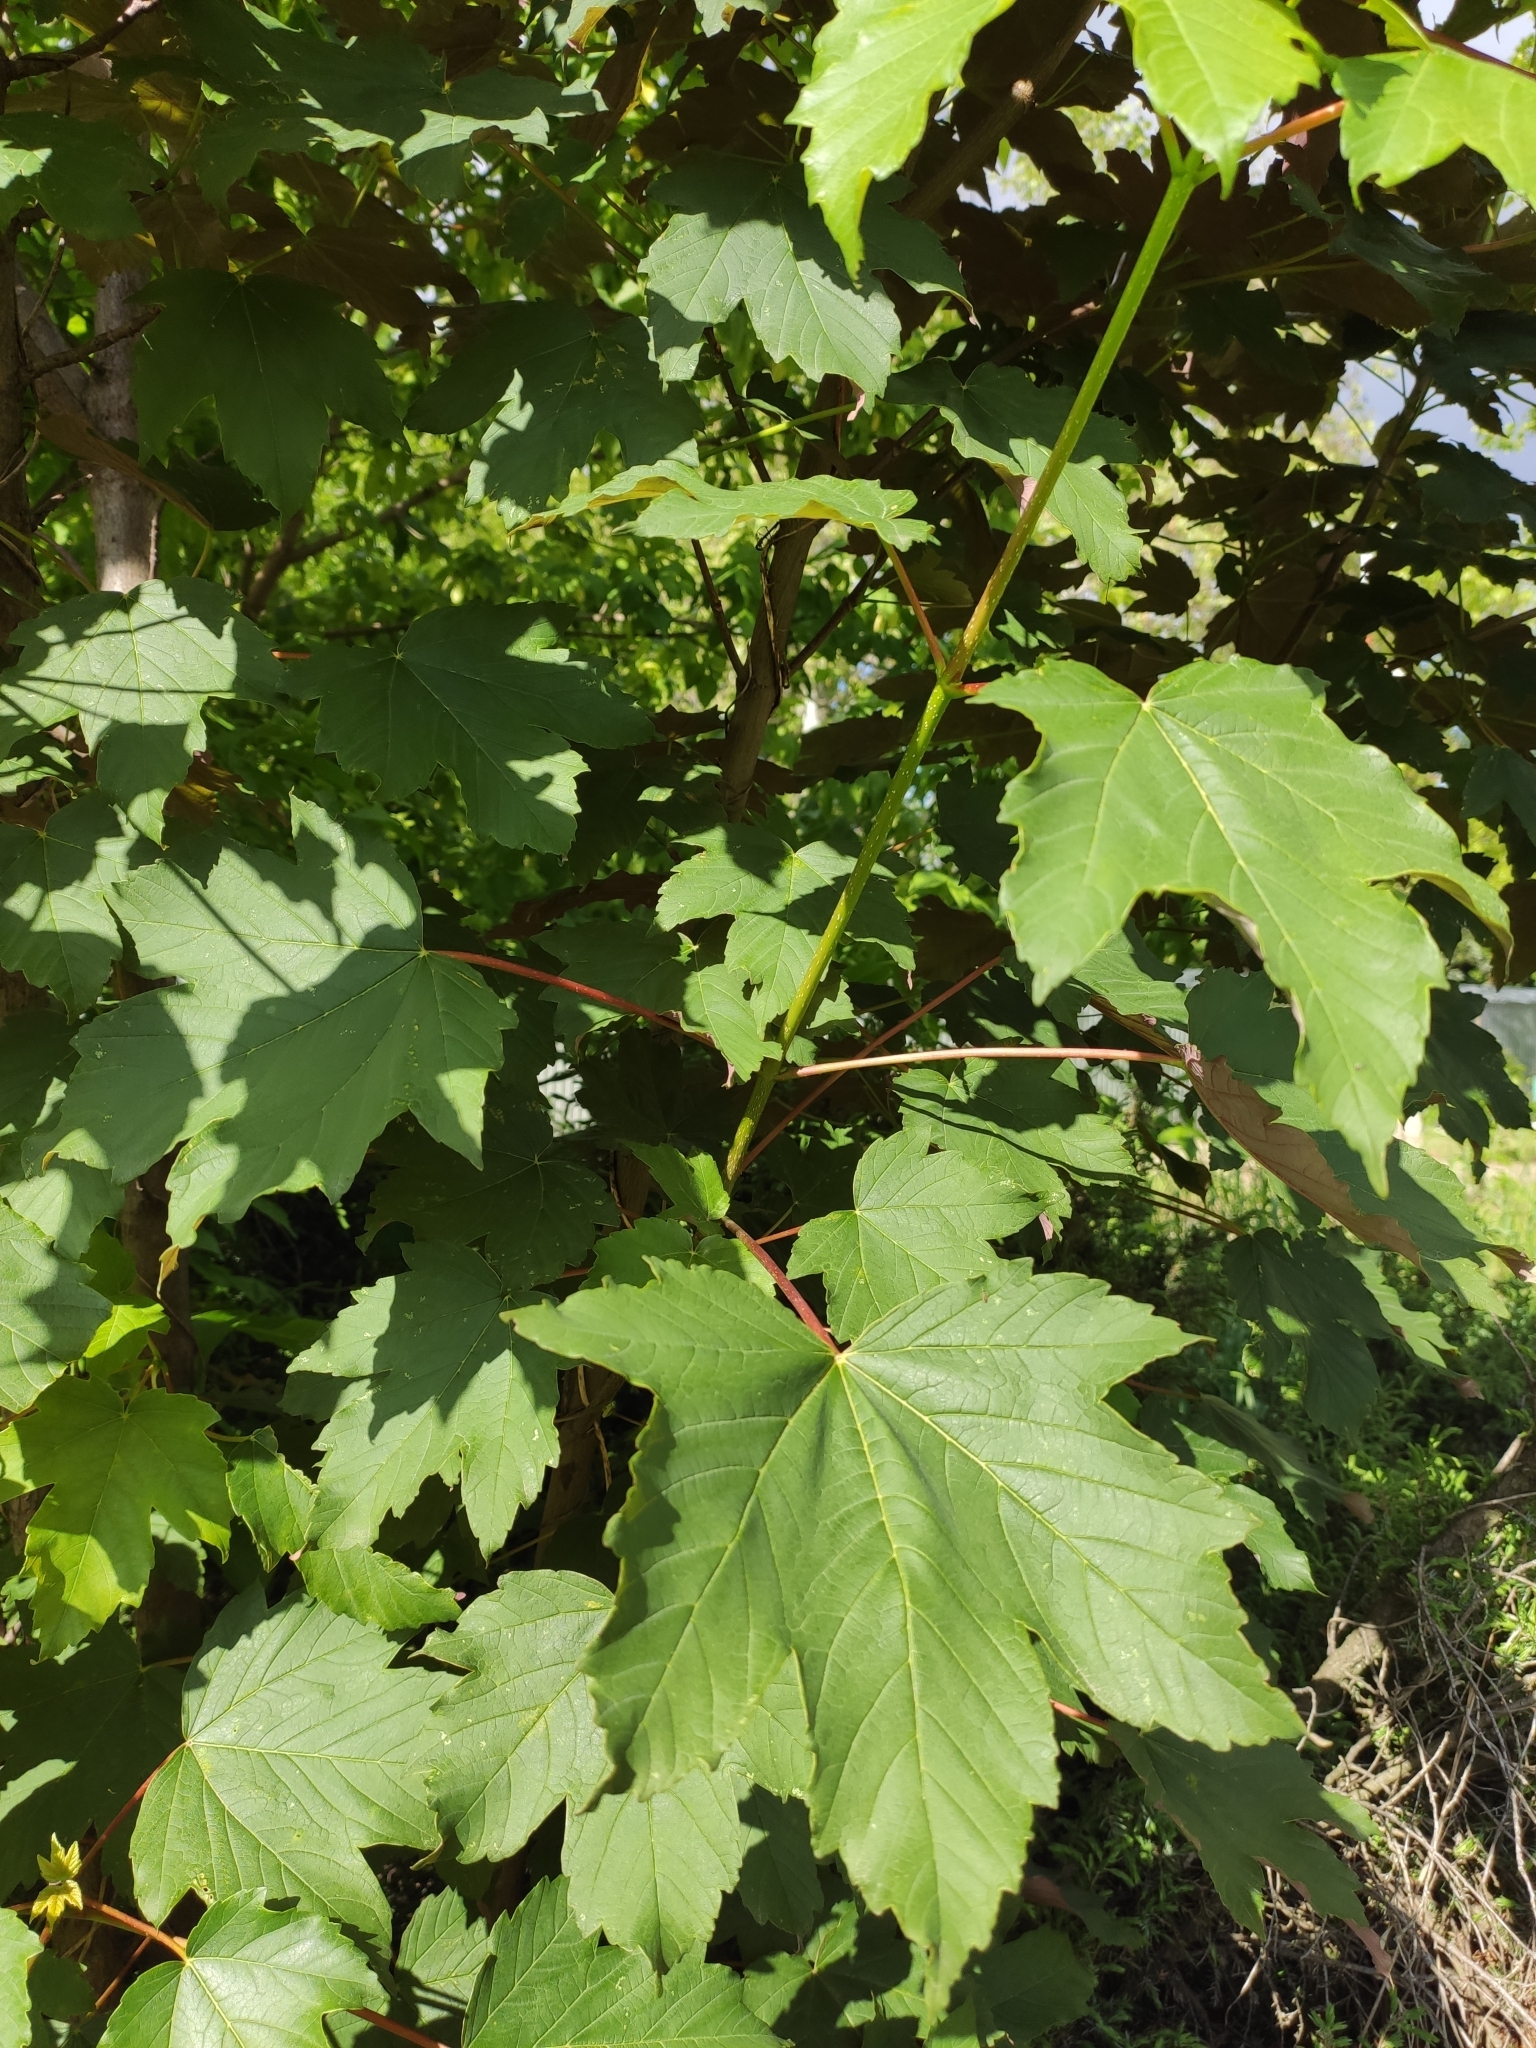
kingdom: Plantae
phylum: Tracheophyta
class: Magnoliopsida
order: Sapindales
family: Sapindaceae
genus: Acer
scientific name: Acer pseudoplatanus
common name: Sycamore
